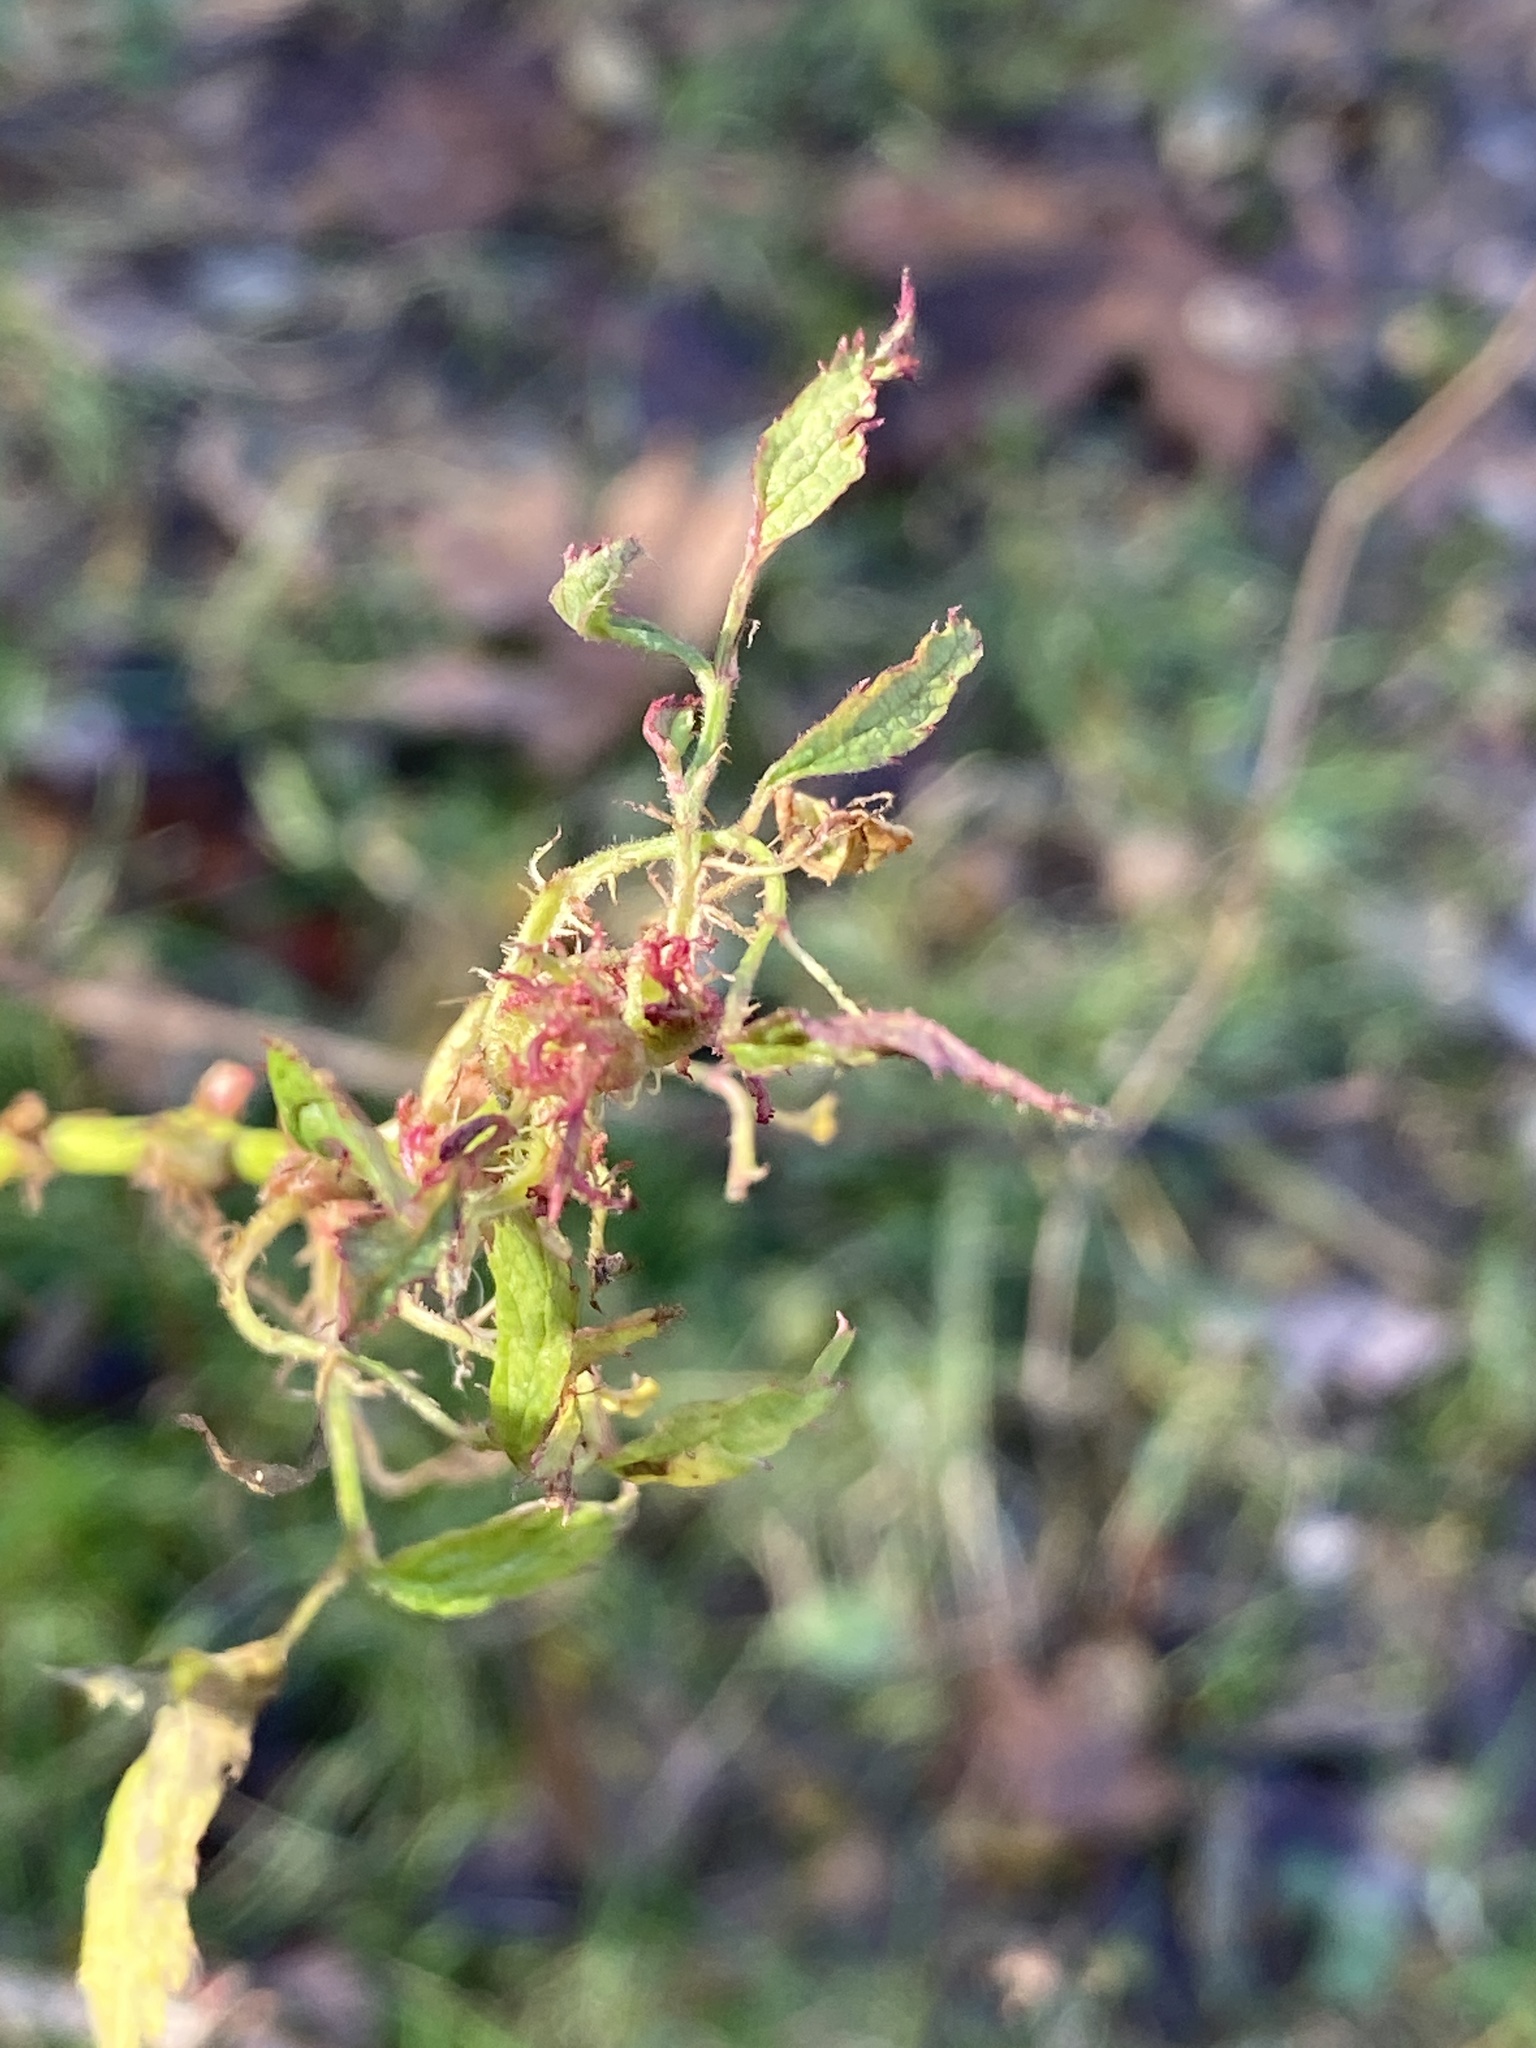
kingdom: Viruses
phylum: Negarnaviricota
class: Ellioviricetes
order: Bunyavirales
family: Fimoviridae
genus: Emaravirus
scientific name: Emaravirus rosae
